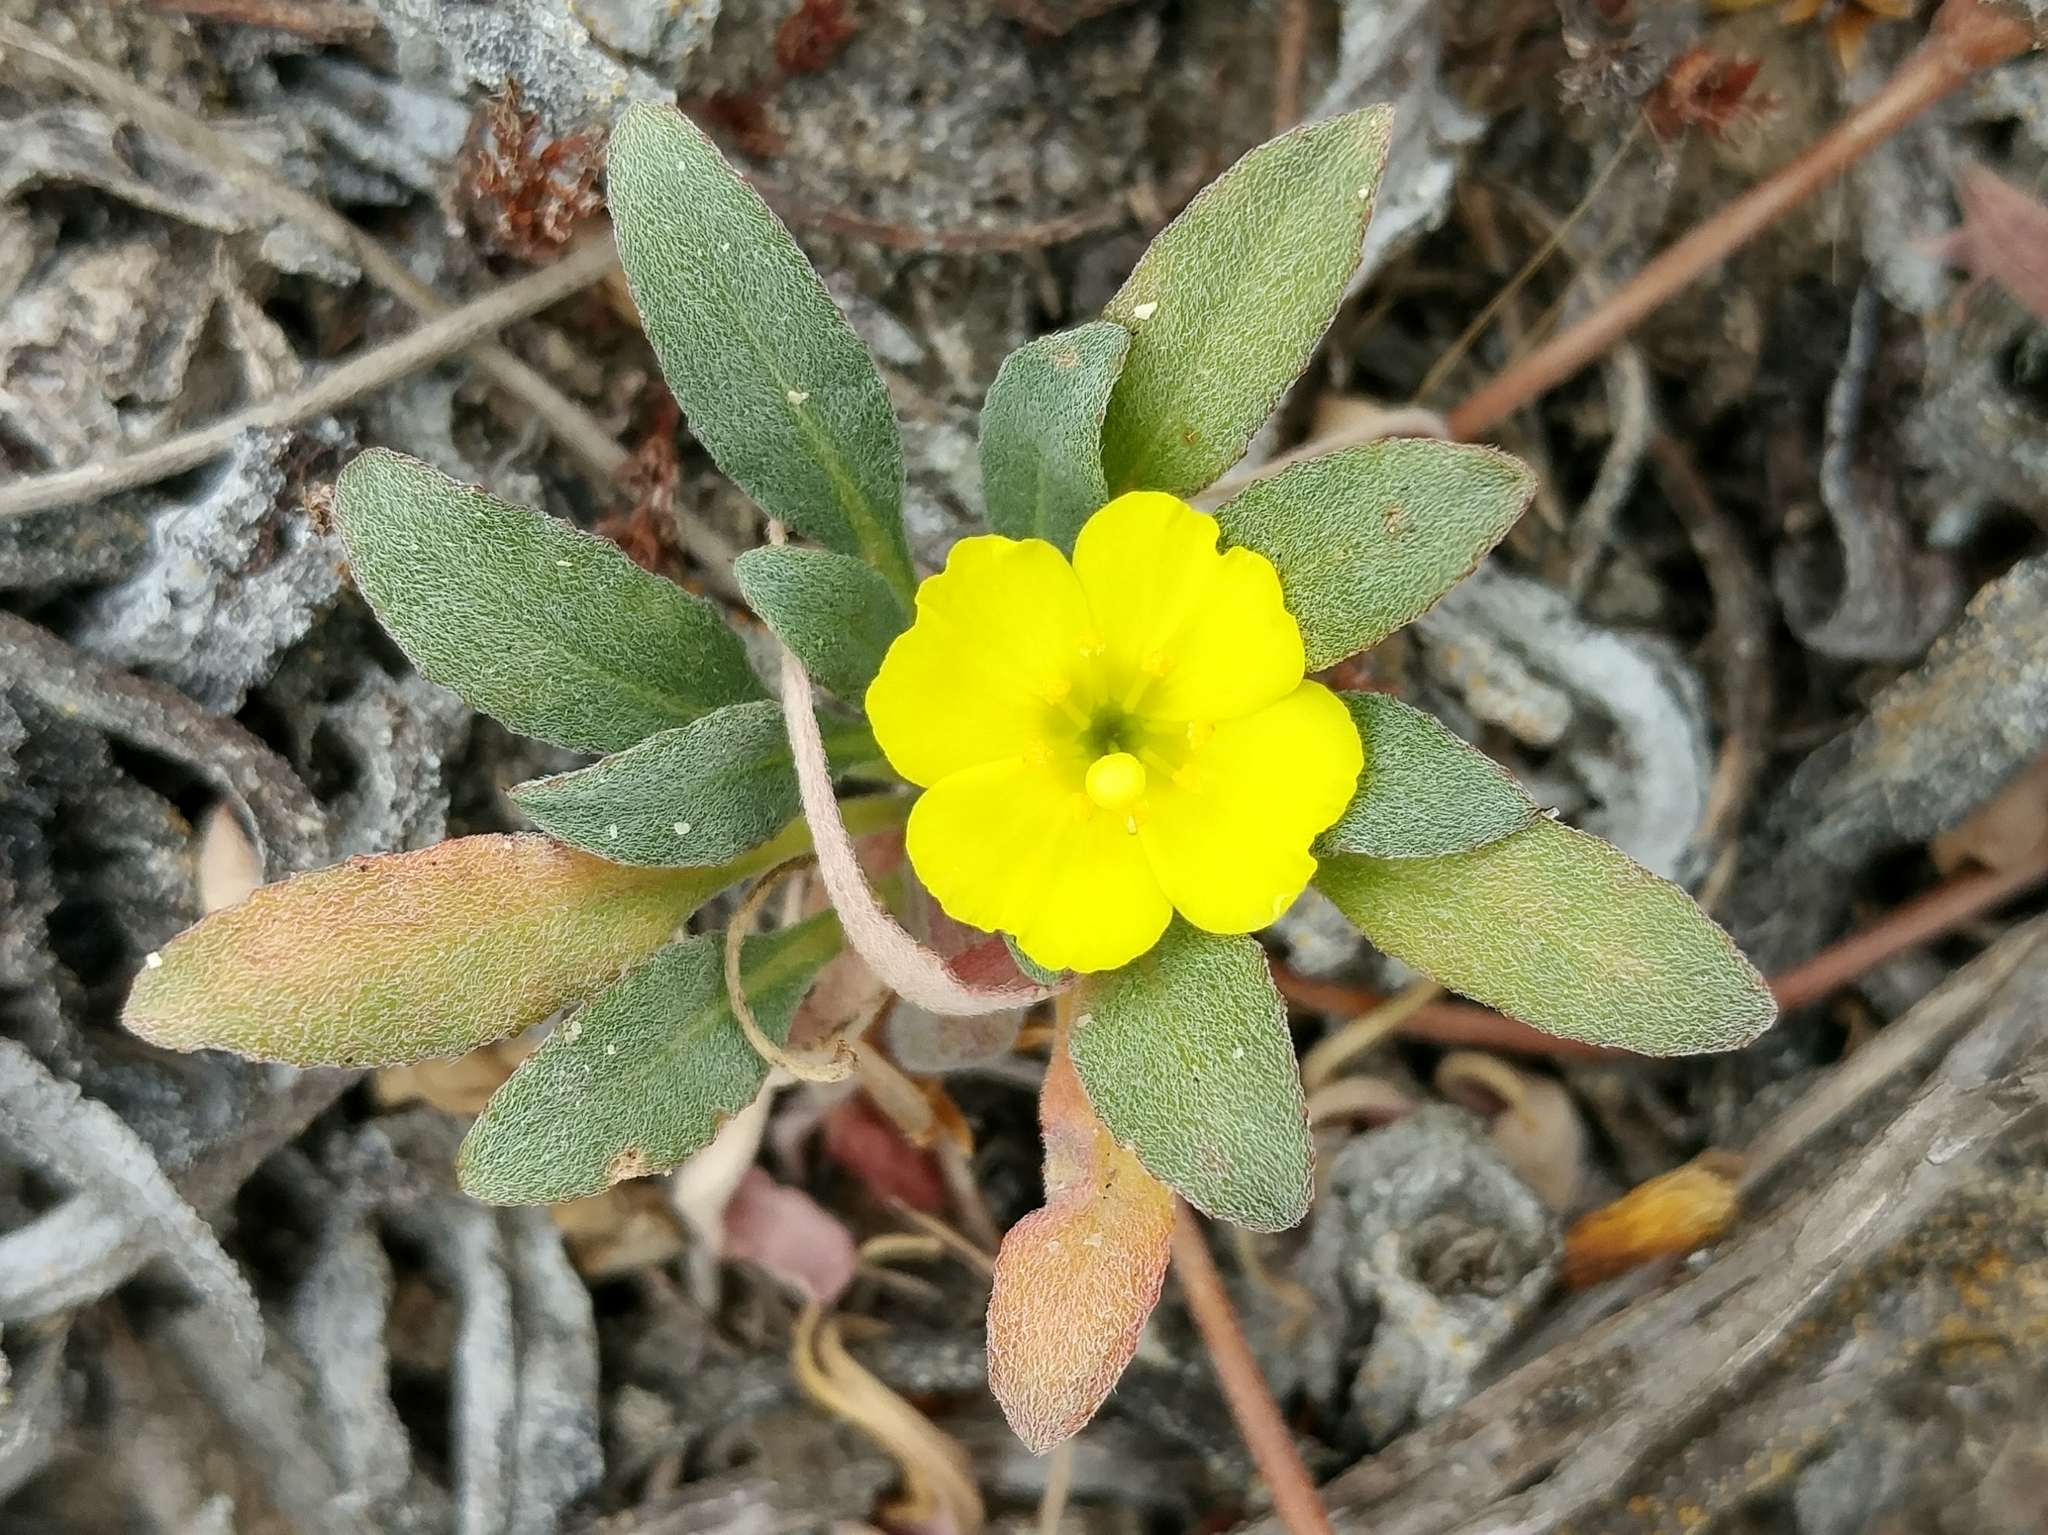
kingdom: Plantae
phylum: Tracheophyta
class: Magnoliopsida
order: Myrtales
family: Onagraceae
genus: Camissoniopsis
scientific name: Camissoniopsis cheiranthifolia
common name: Beach suncup
